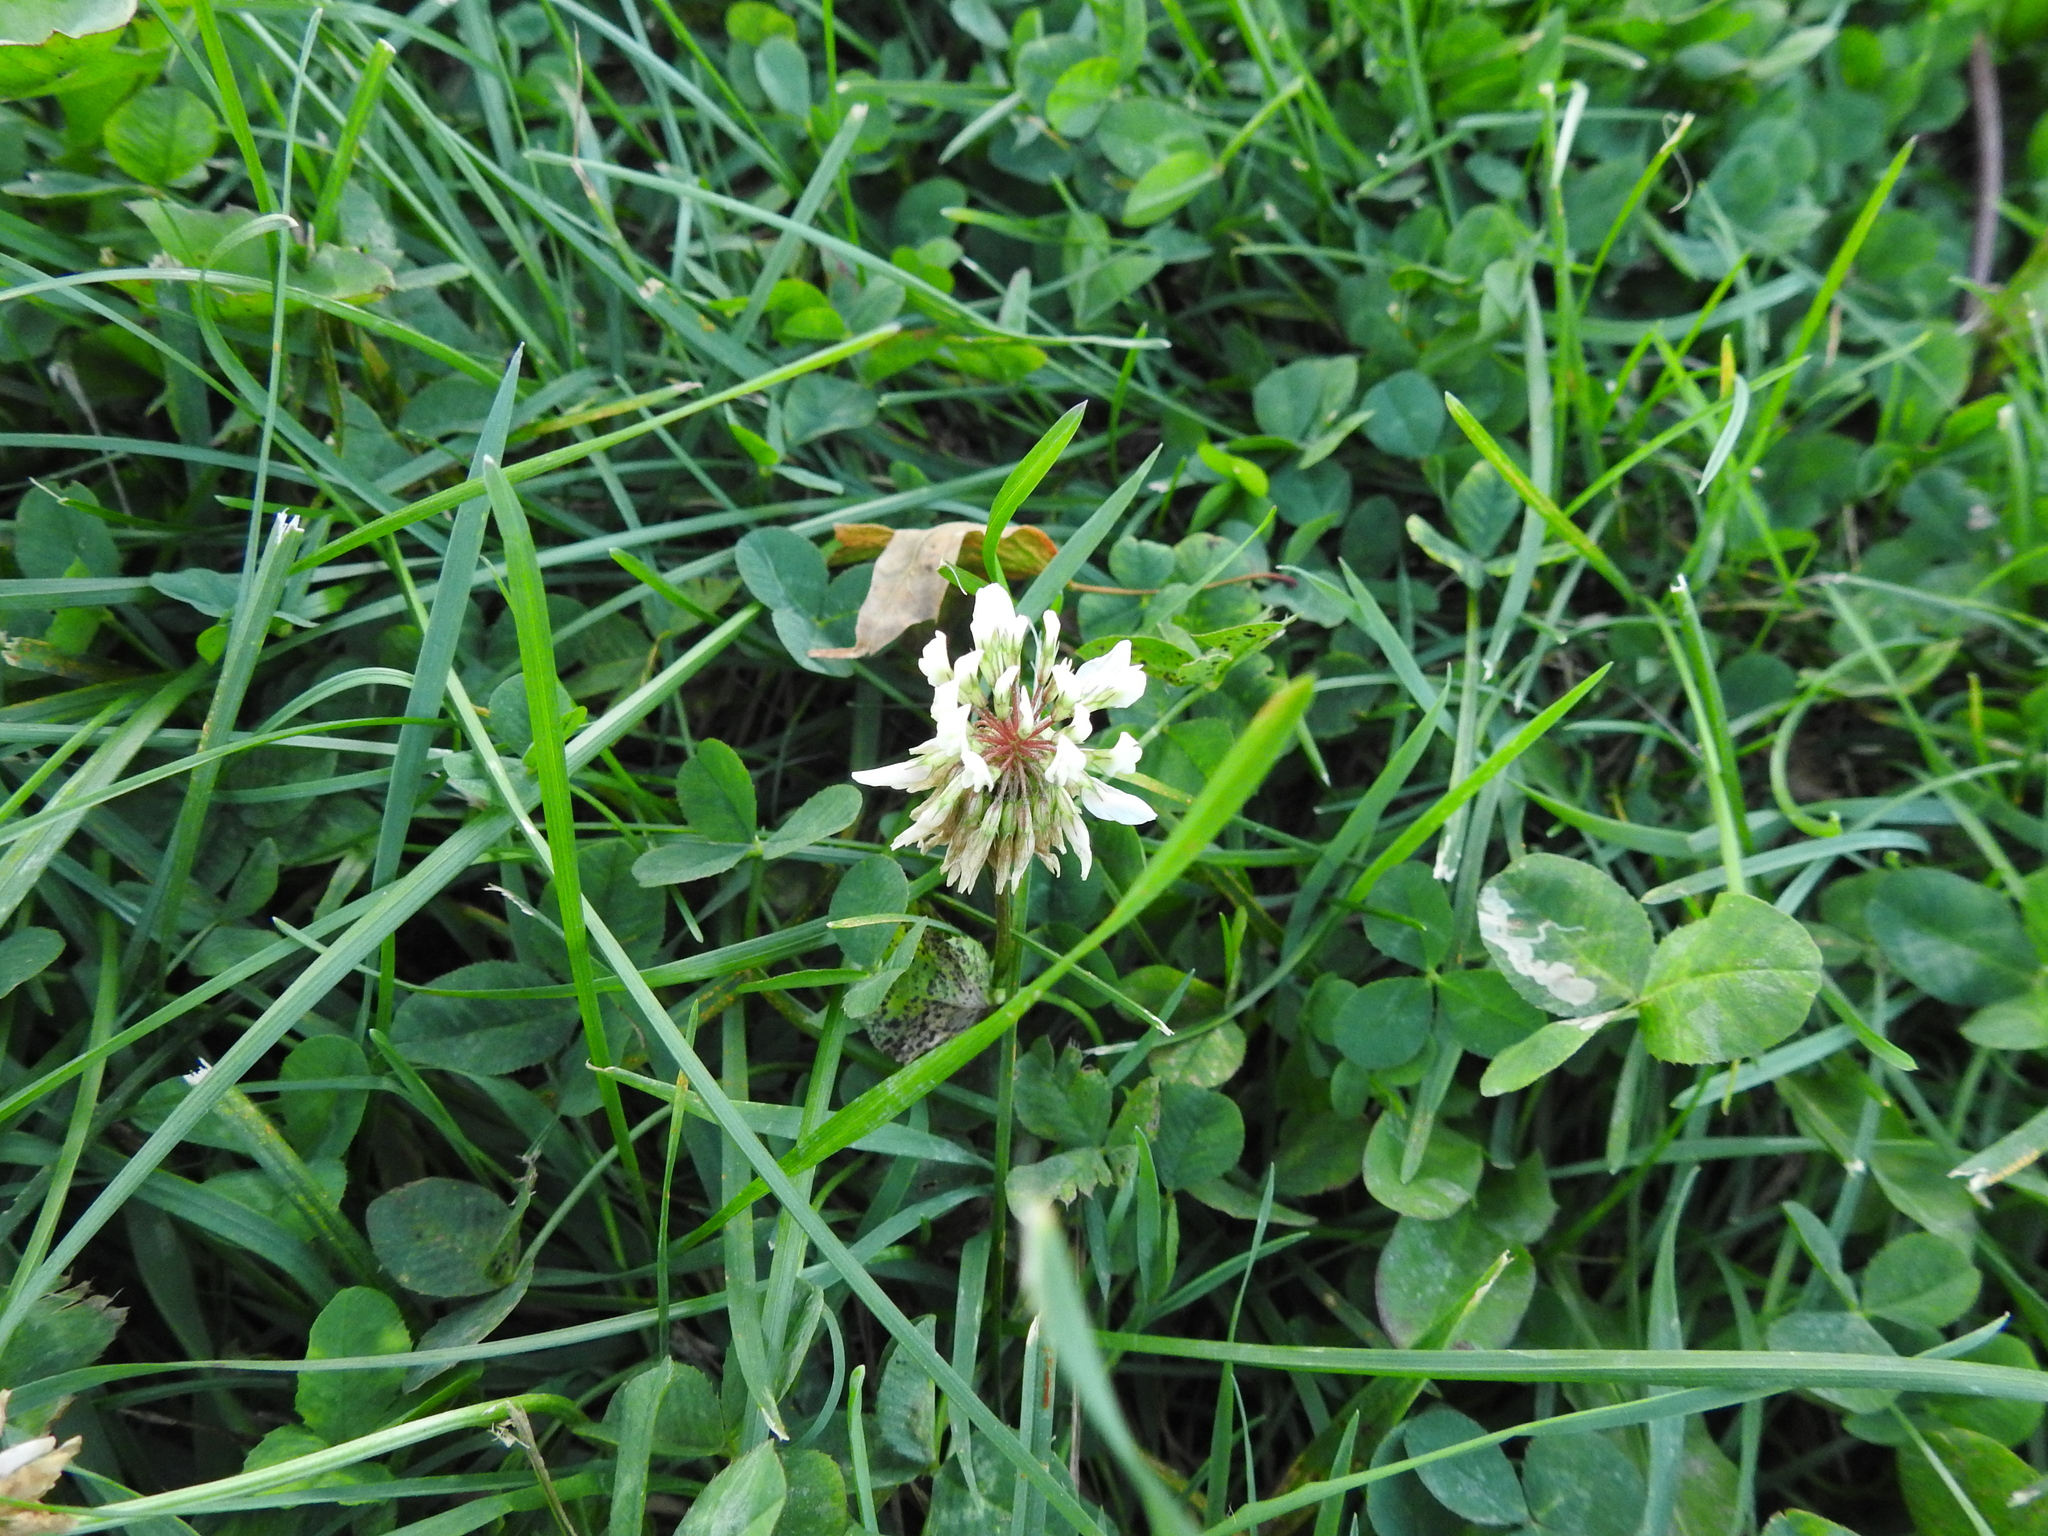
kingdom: Plantae
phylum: Tracheophyta
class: Magnoliopsida
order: Fabales
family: Fabaceae
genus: Trifolium
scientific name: Trifolium repens
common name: White clover
